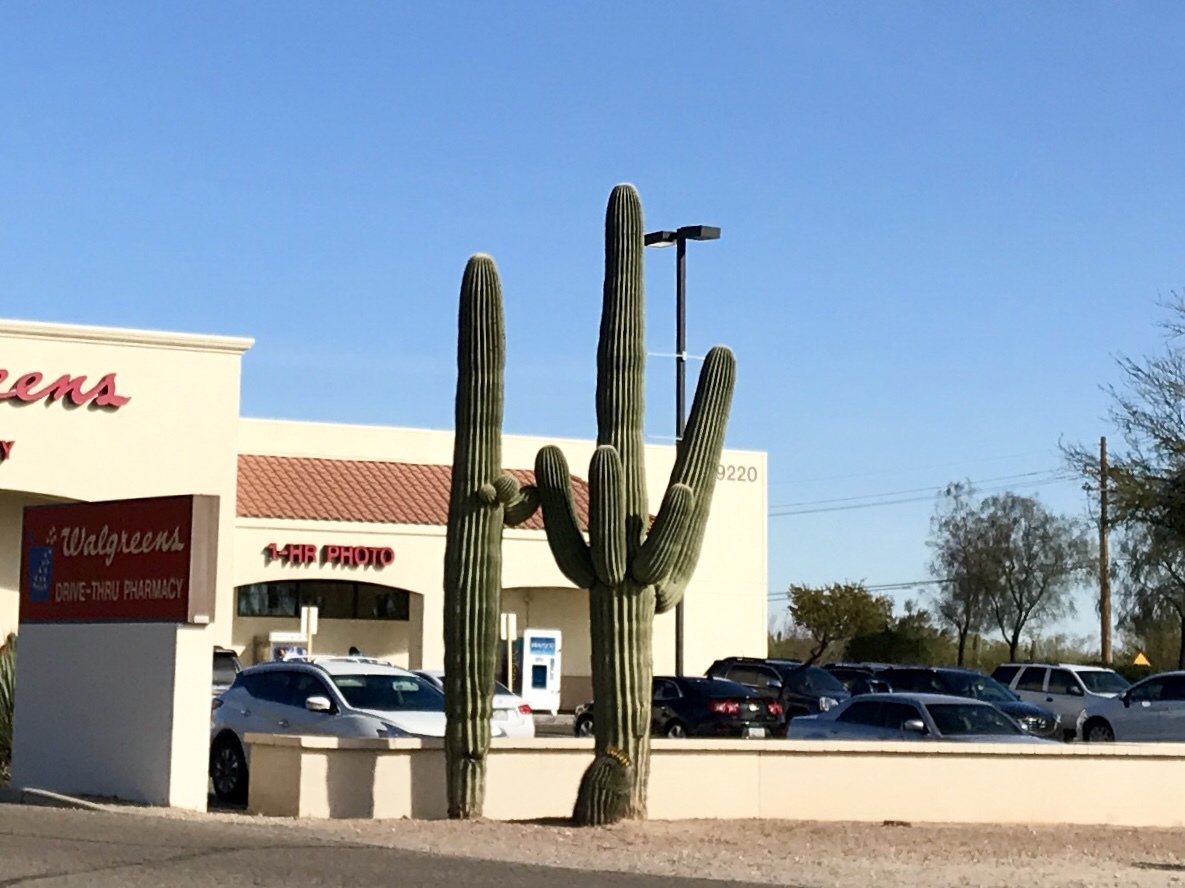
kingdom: Plantae
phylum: Tracheophyta
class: Magnoliopsida
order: Caryophyllales
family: Cactaceae
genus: Carnegiea
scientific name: Carnegiea gigantea
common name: Saguaro
